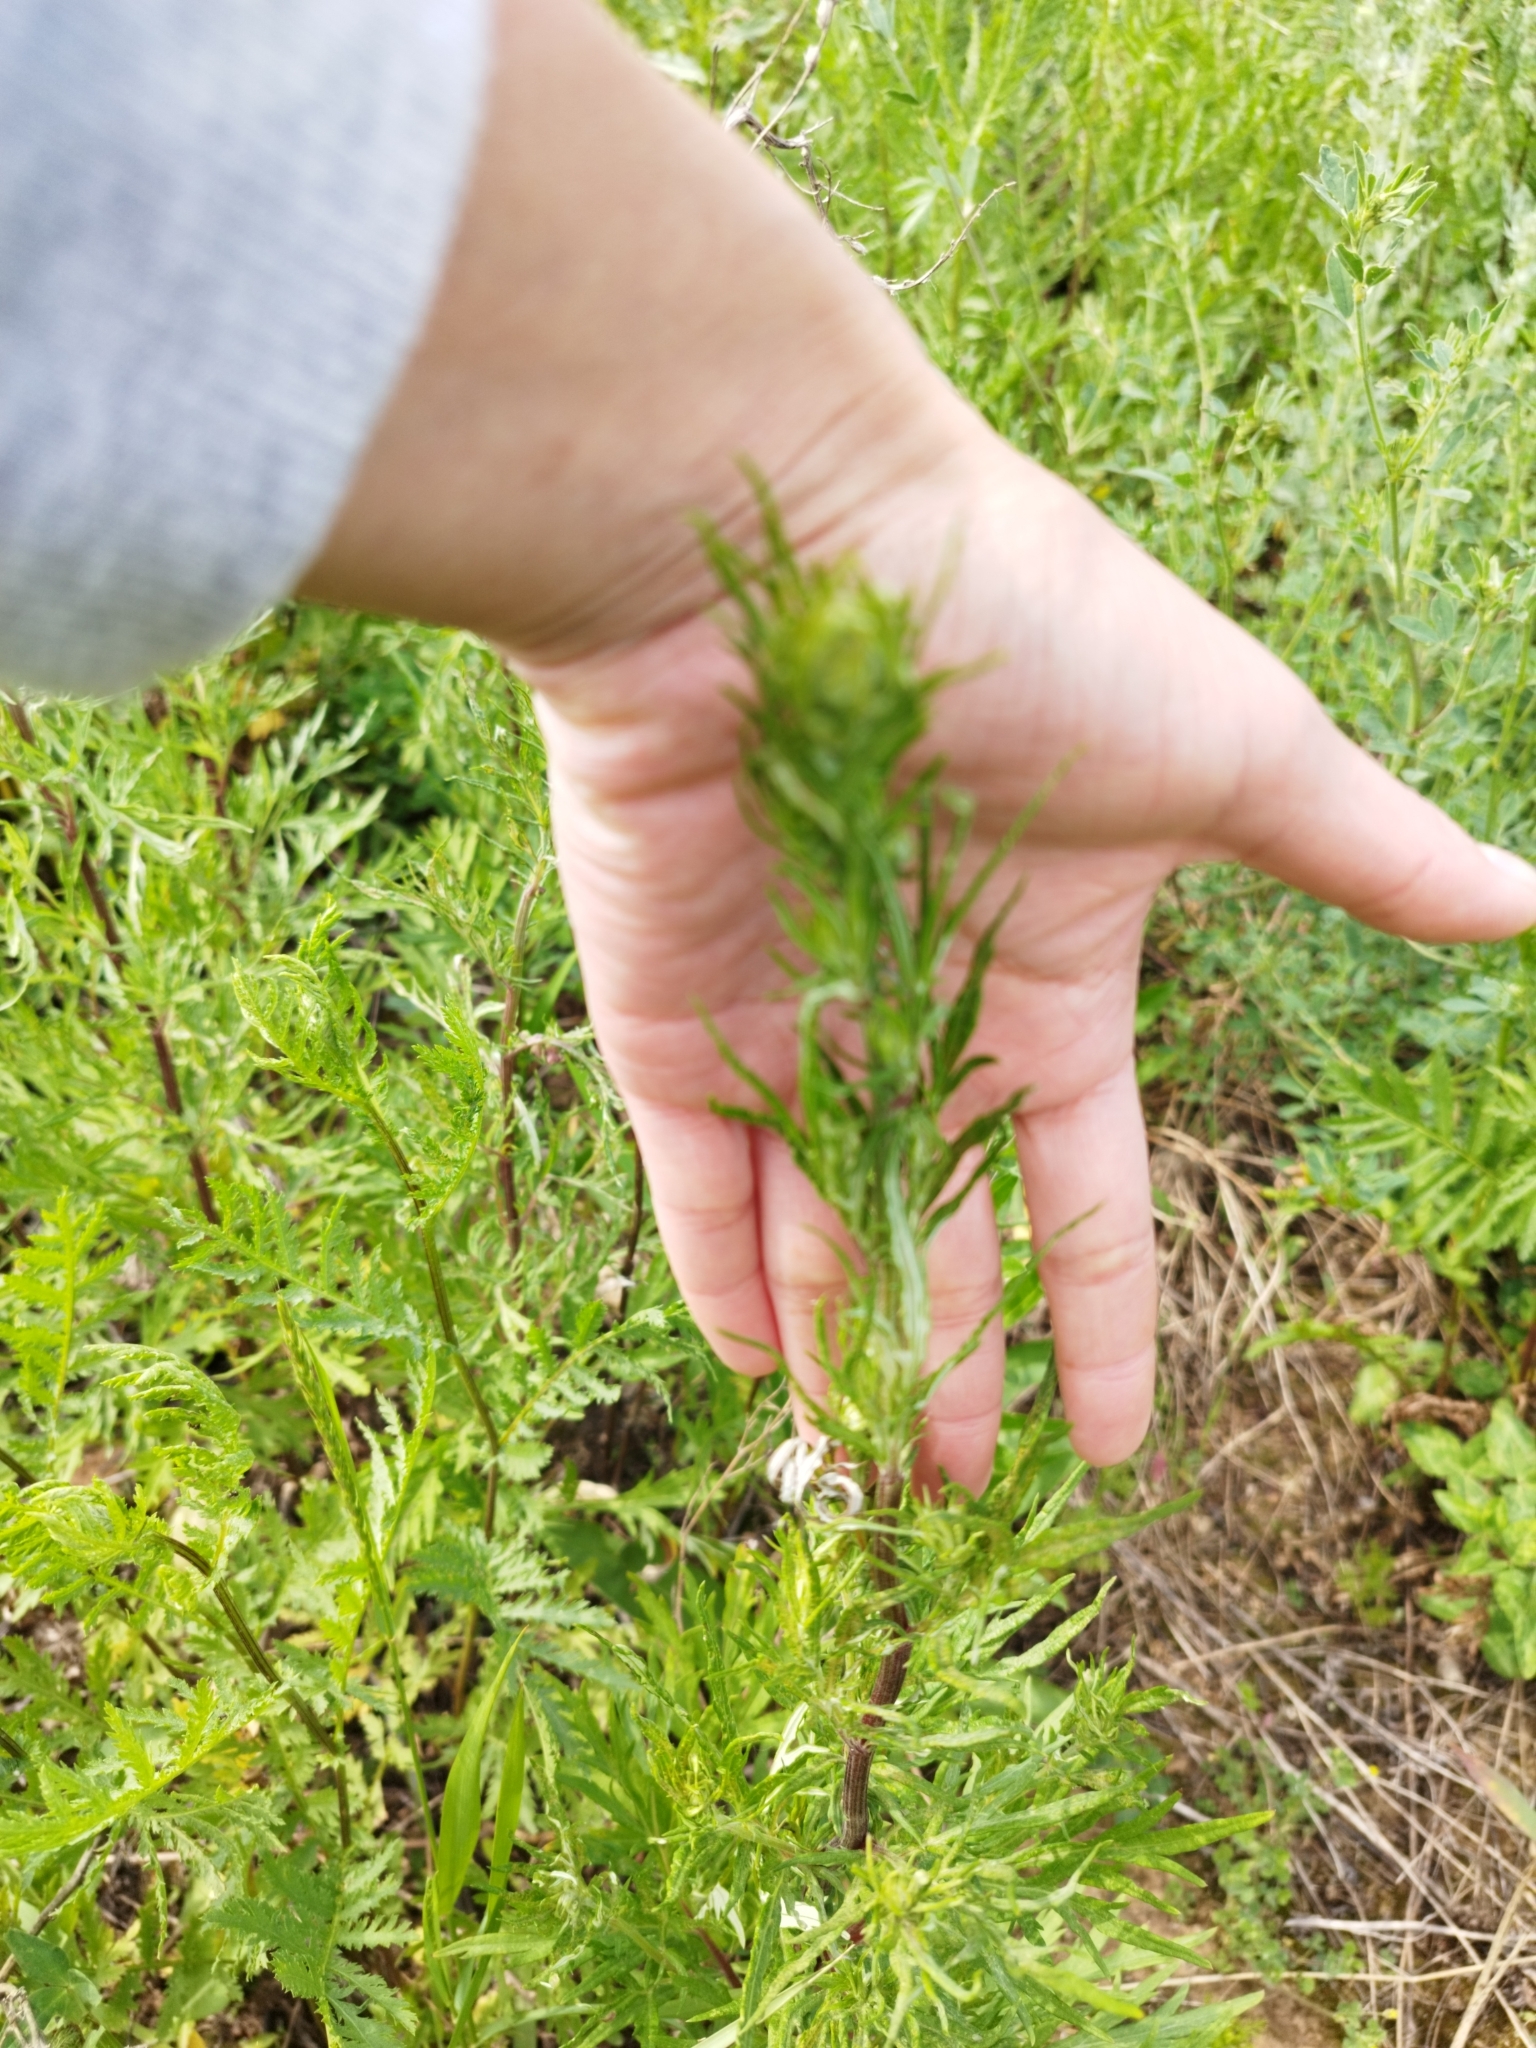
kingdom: Plantae
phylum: Tracheophyta
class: Magnoliopsida
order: Asterales
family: Asteraceae
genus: Artemisia
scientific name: Artemisia vulgaris
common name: Mugwort
